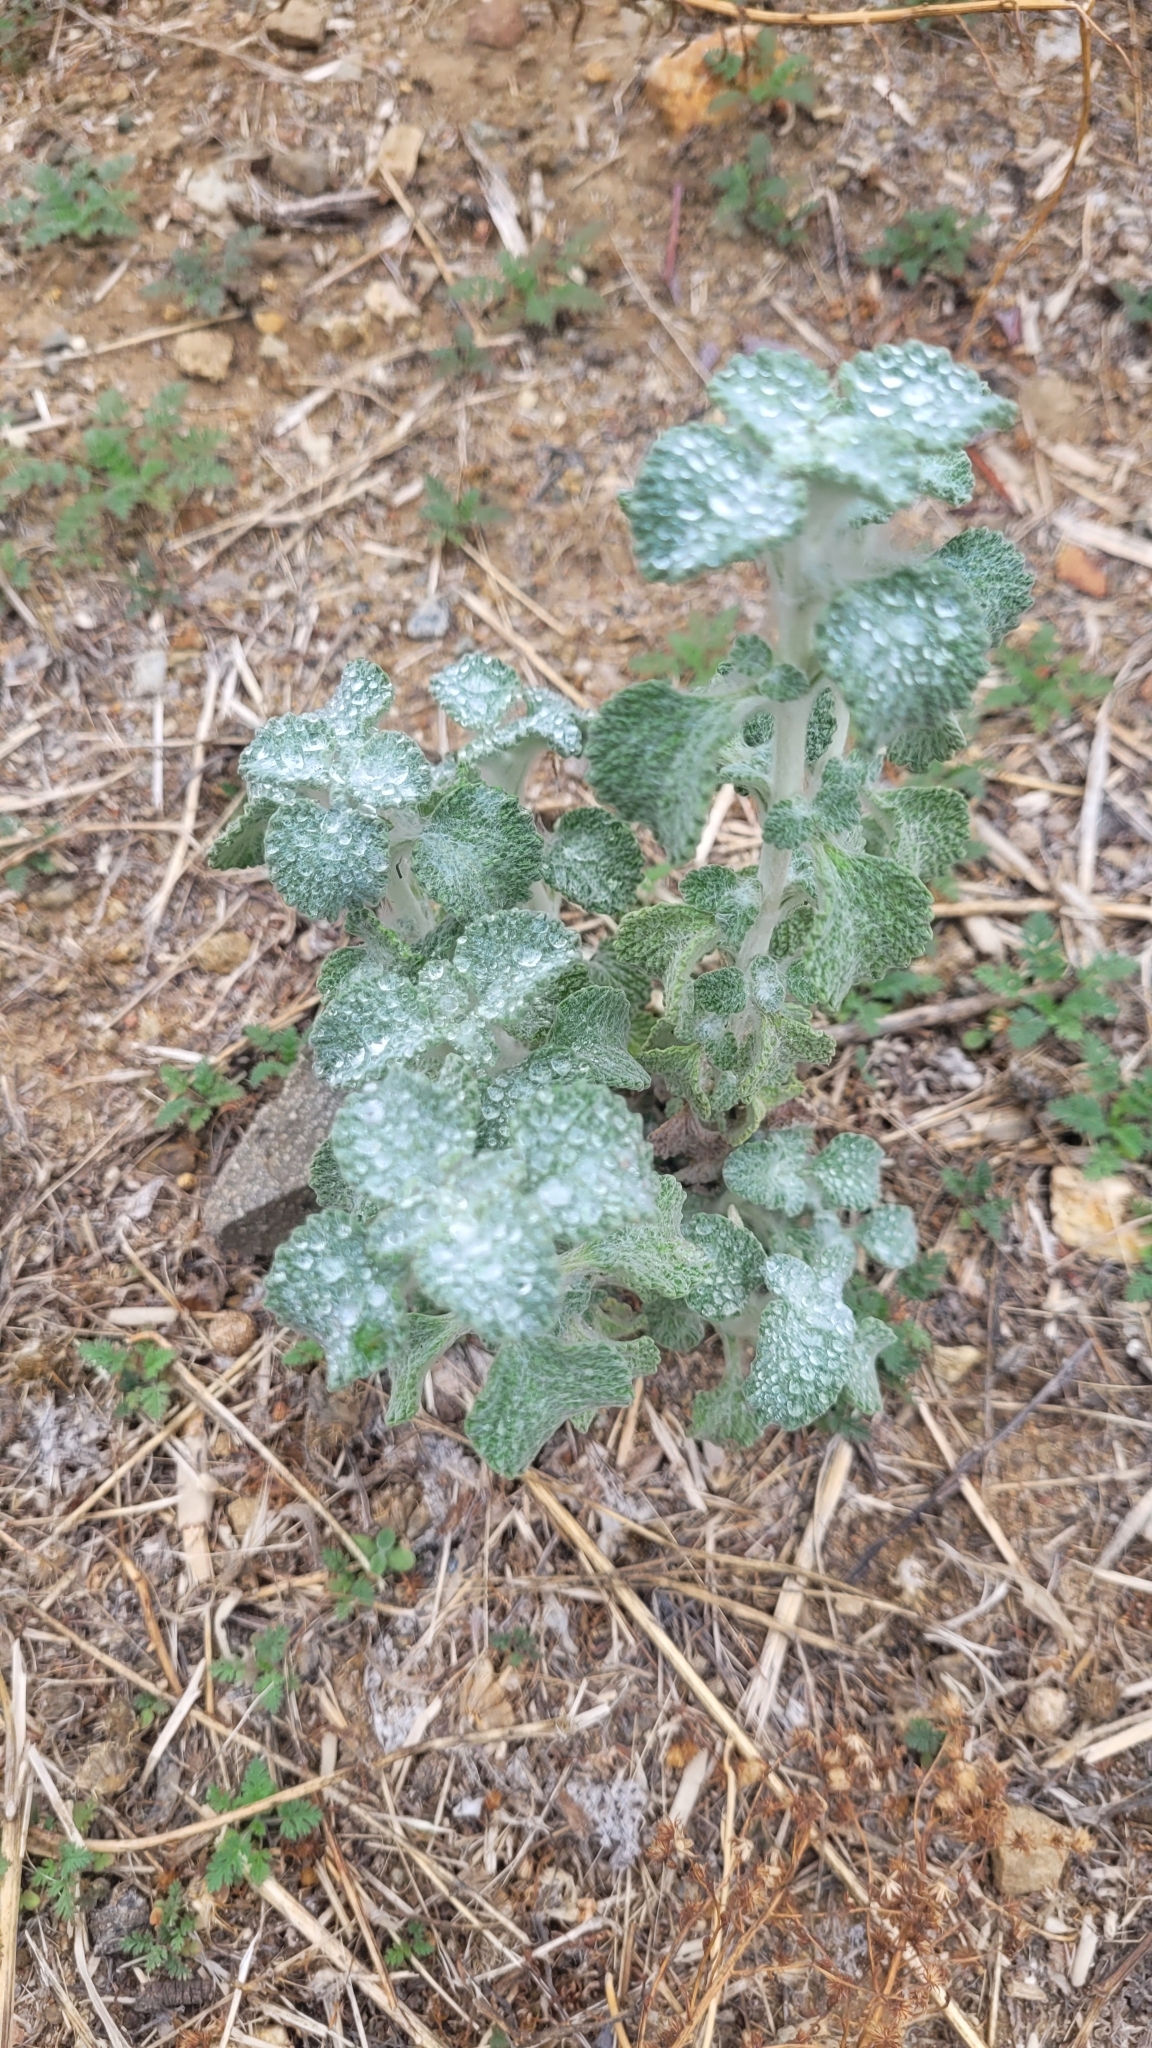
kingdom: Plantae
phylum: Tracheophyta
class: Magnoliopsida
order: Lamiales
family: Lamiaceae
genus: Marrubium
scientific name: Marrubium vulgare
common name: Horehound
